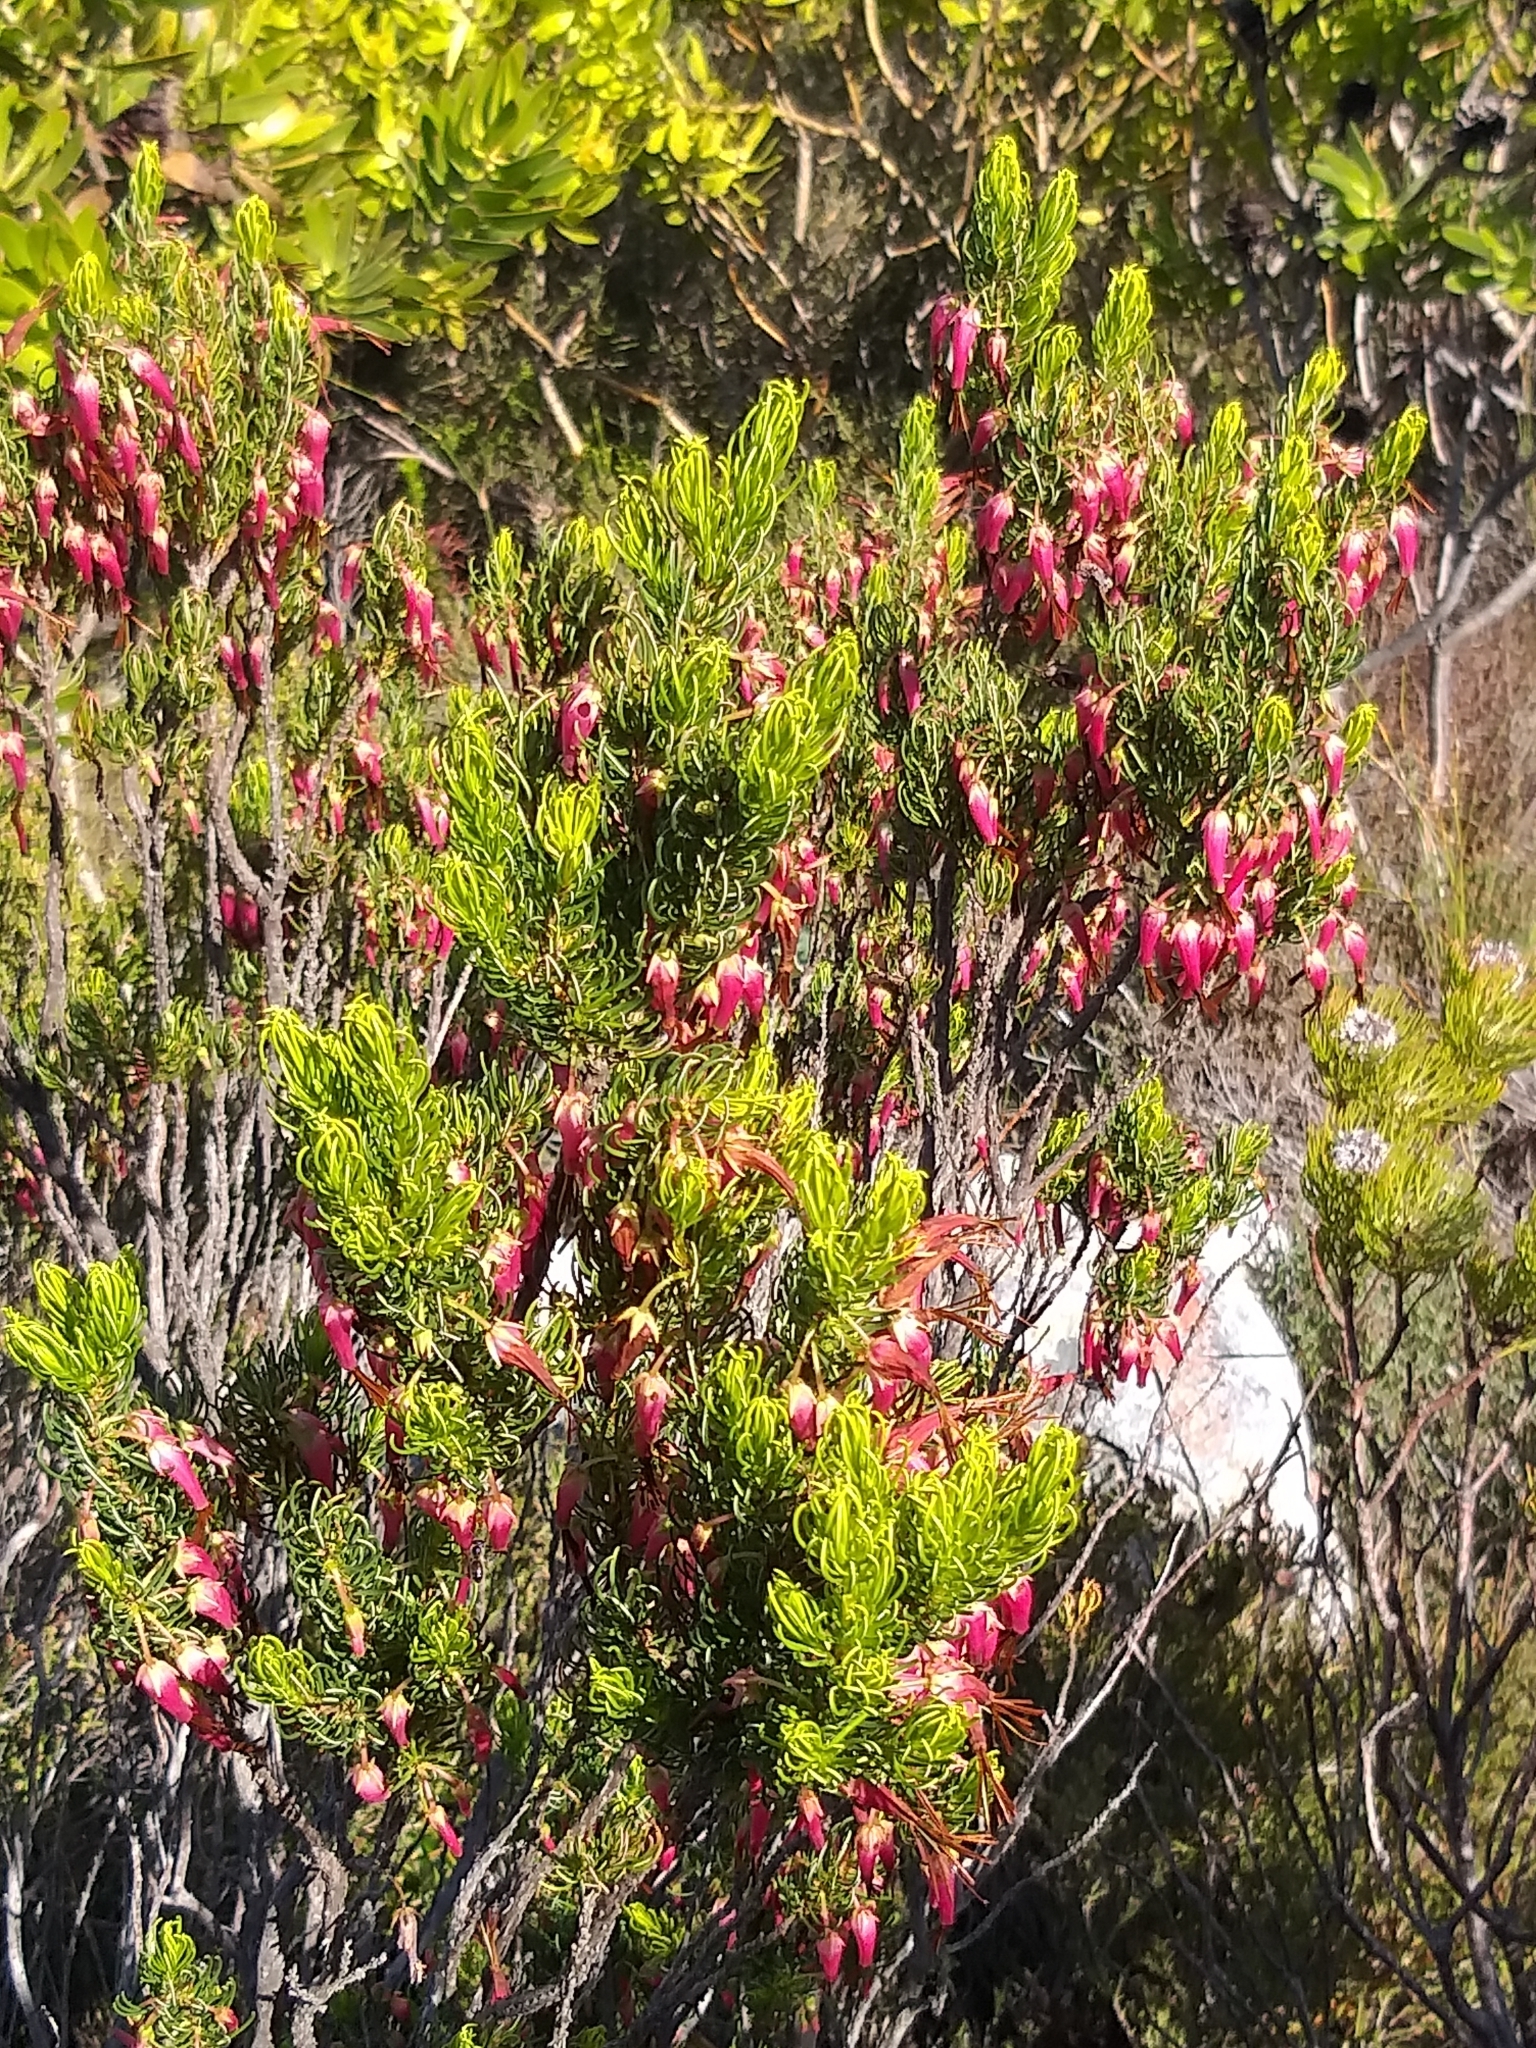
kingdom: Plantae
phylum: Tracheophyta
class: Magnoliopsida
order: Ericales
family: Ericaceae
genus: Erica
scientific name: Erica plukenetii
